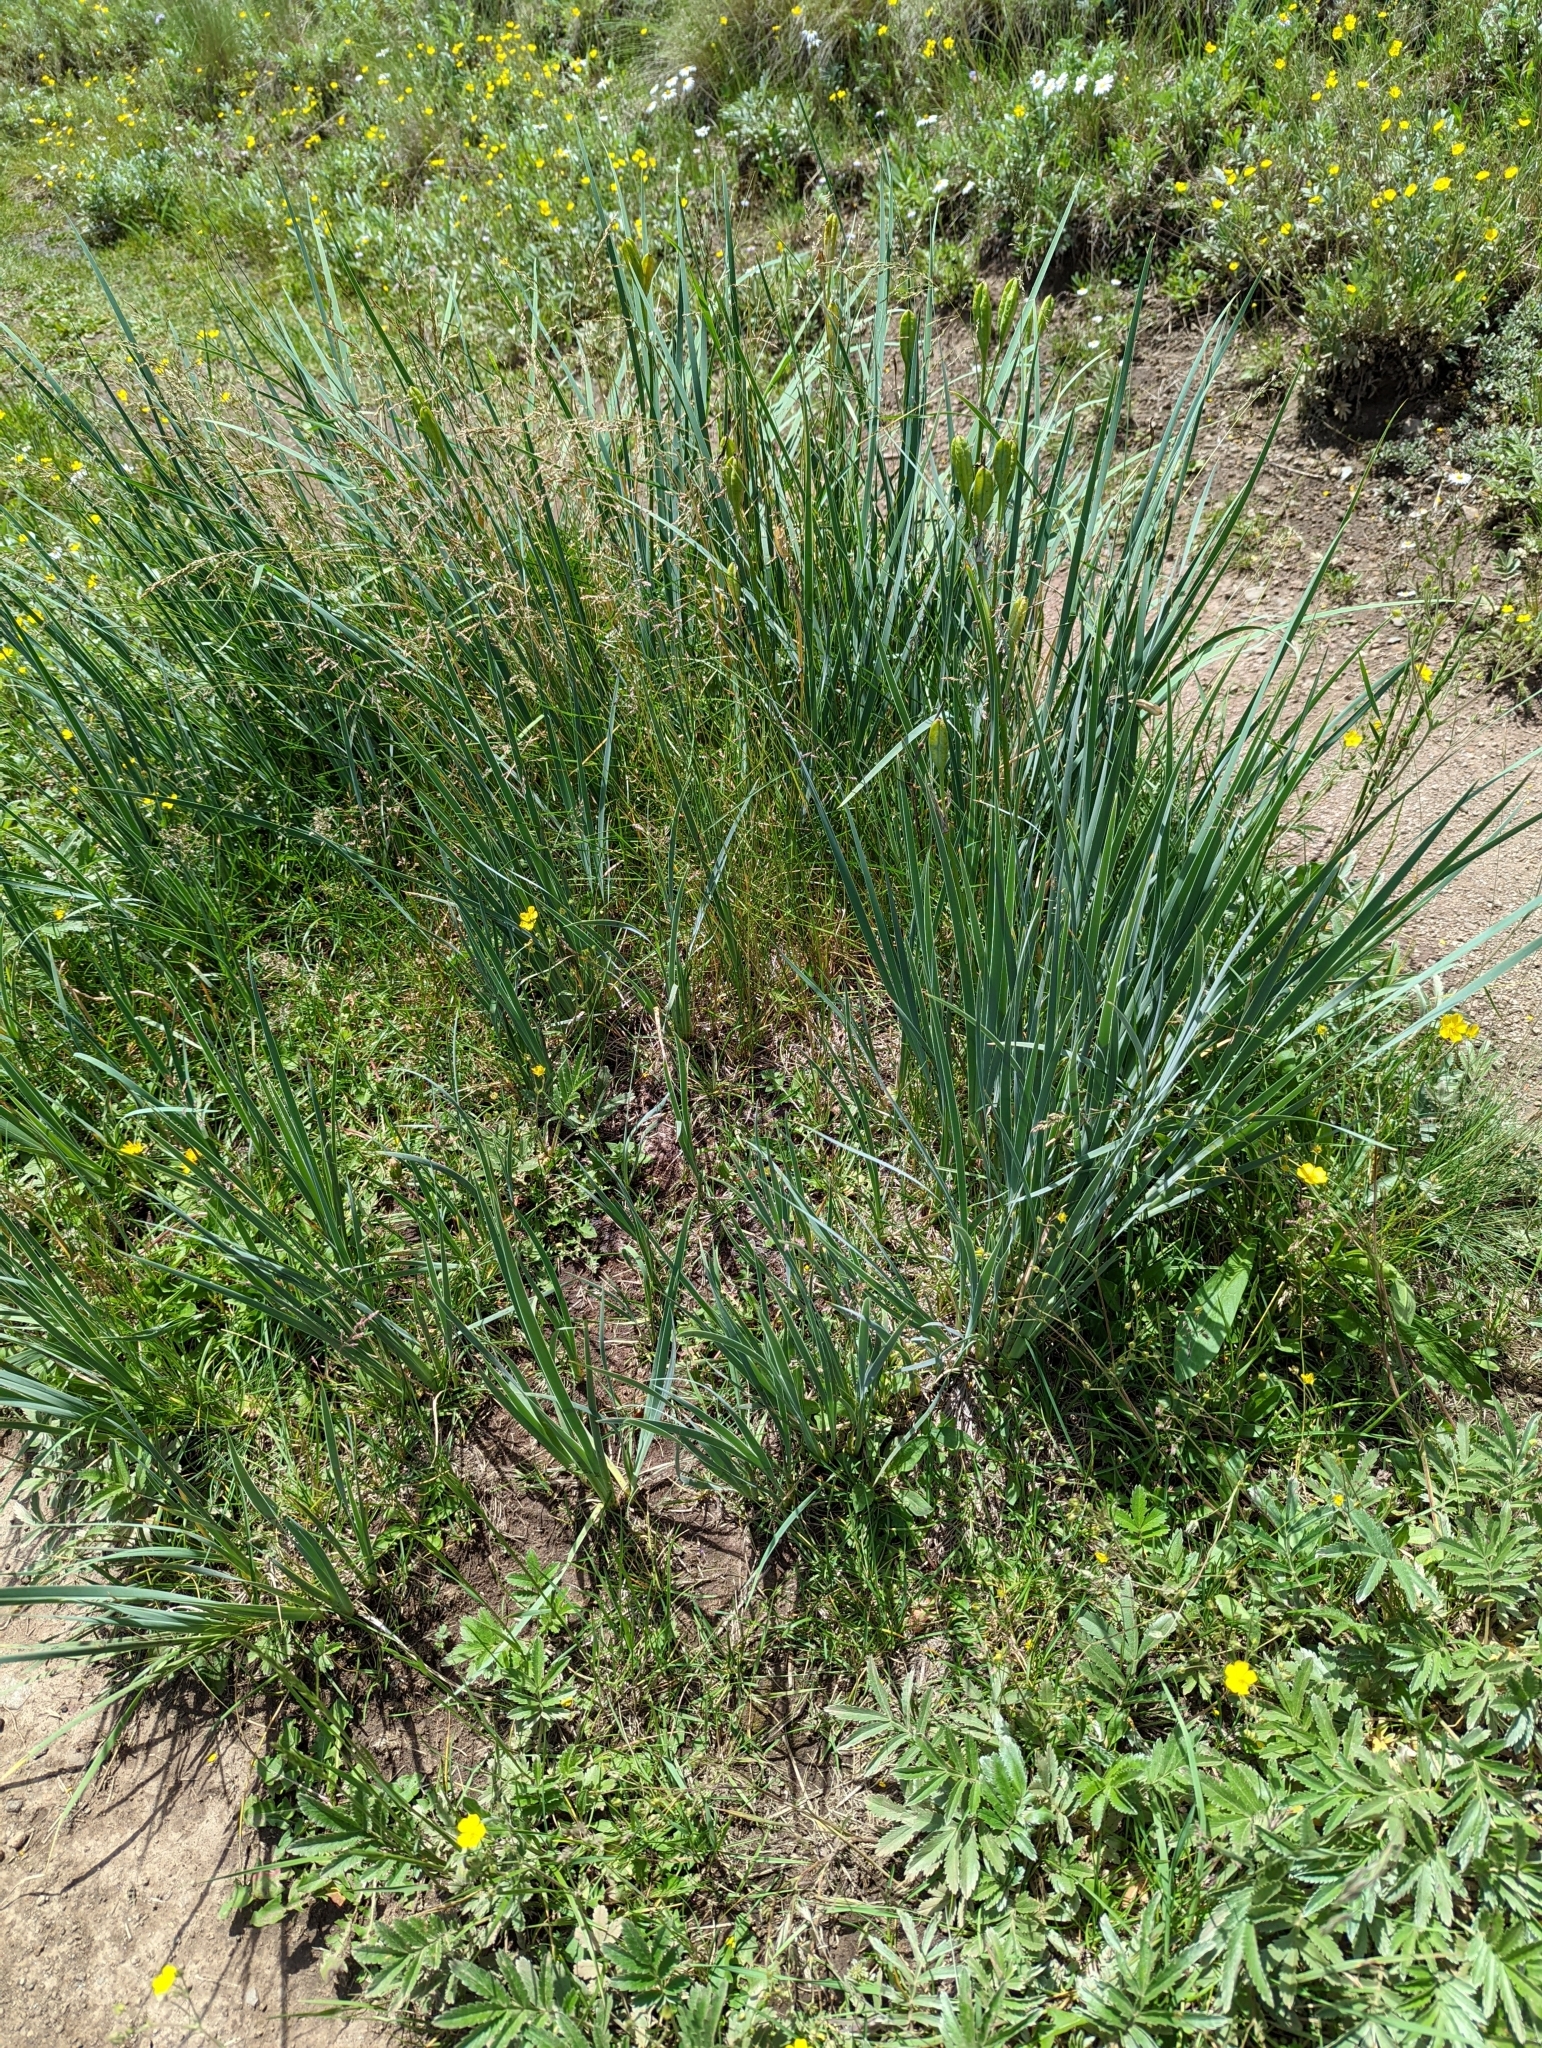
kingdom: Plantae
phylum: Tracheophyta
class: Liliopsida
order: Asparagales
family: Iridaceae
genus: Iris
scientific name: Iris missouriensis
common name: Rocky mountain iris
